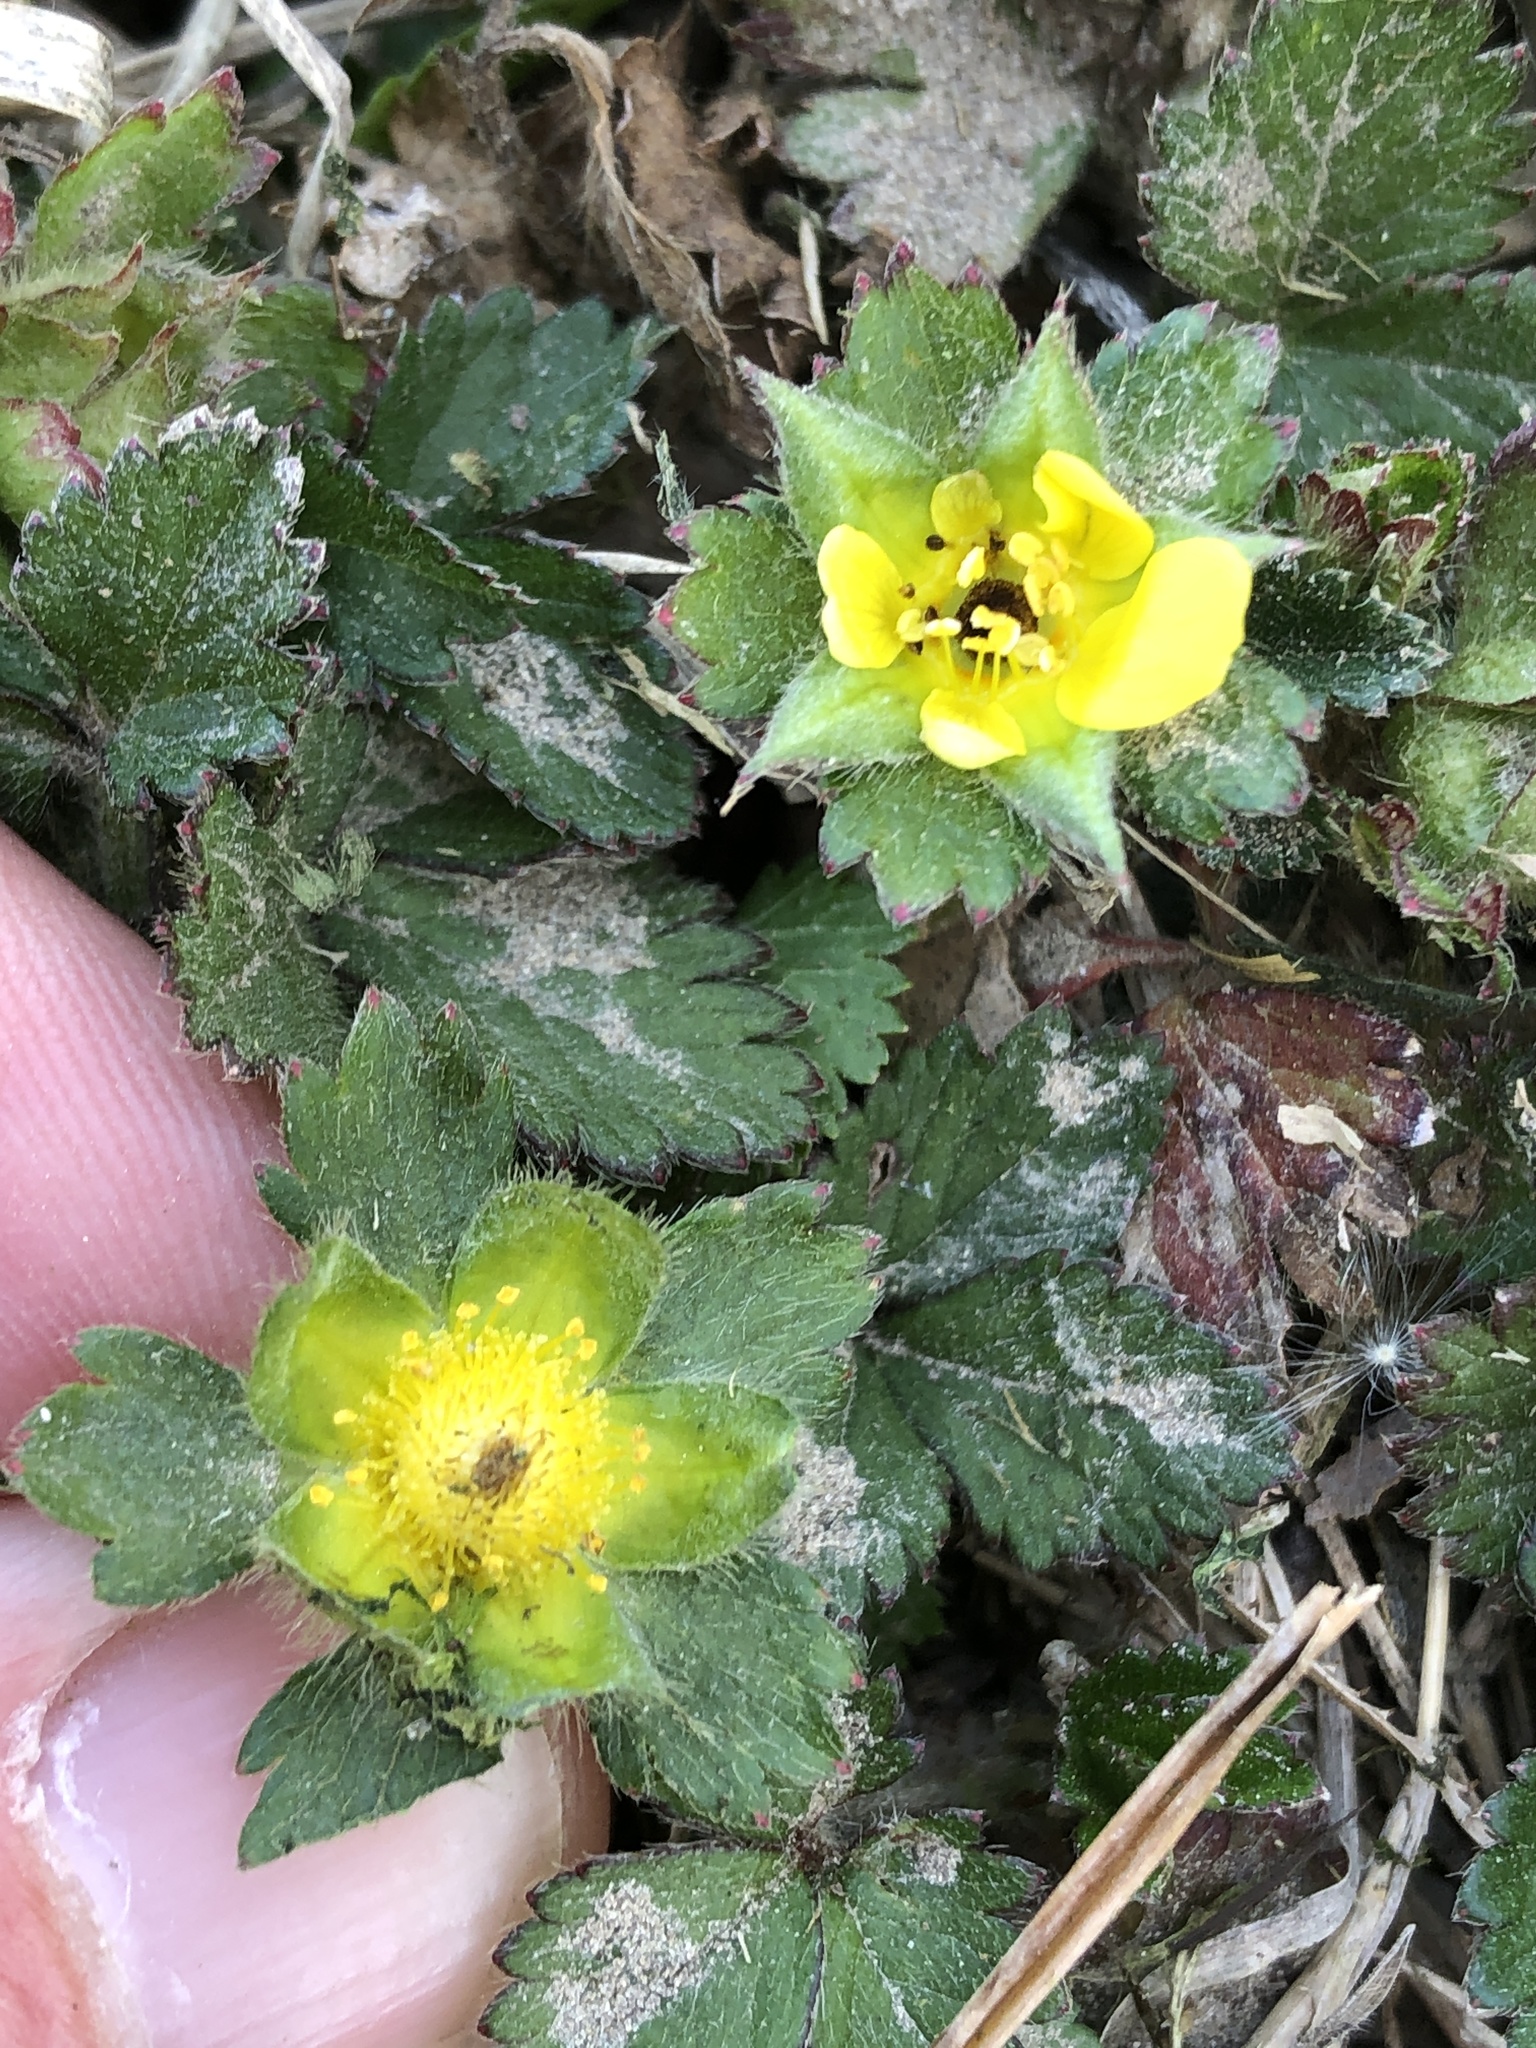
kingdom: Plantae
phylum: Tracheophyta
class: Magnoliopsida
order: Rosales
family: Rosaceae
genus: Potentilla
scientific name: Potentilla indica
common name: Yellow-flowered strawberry
